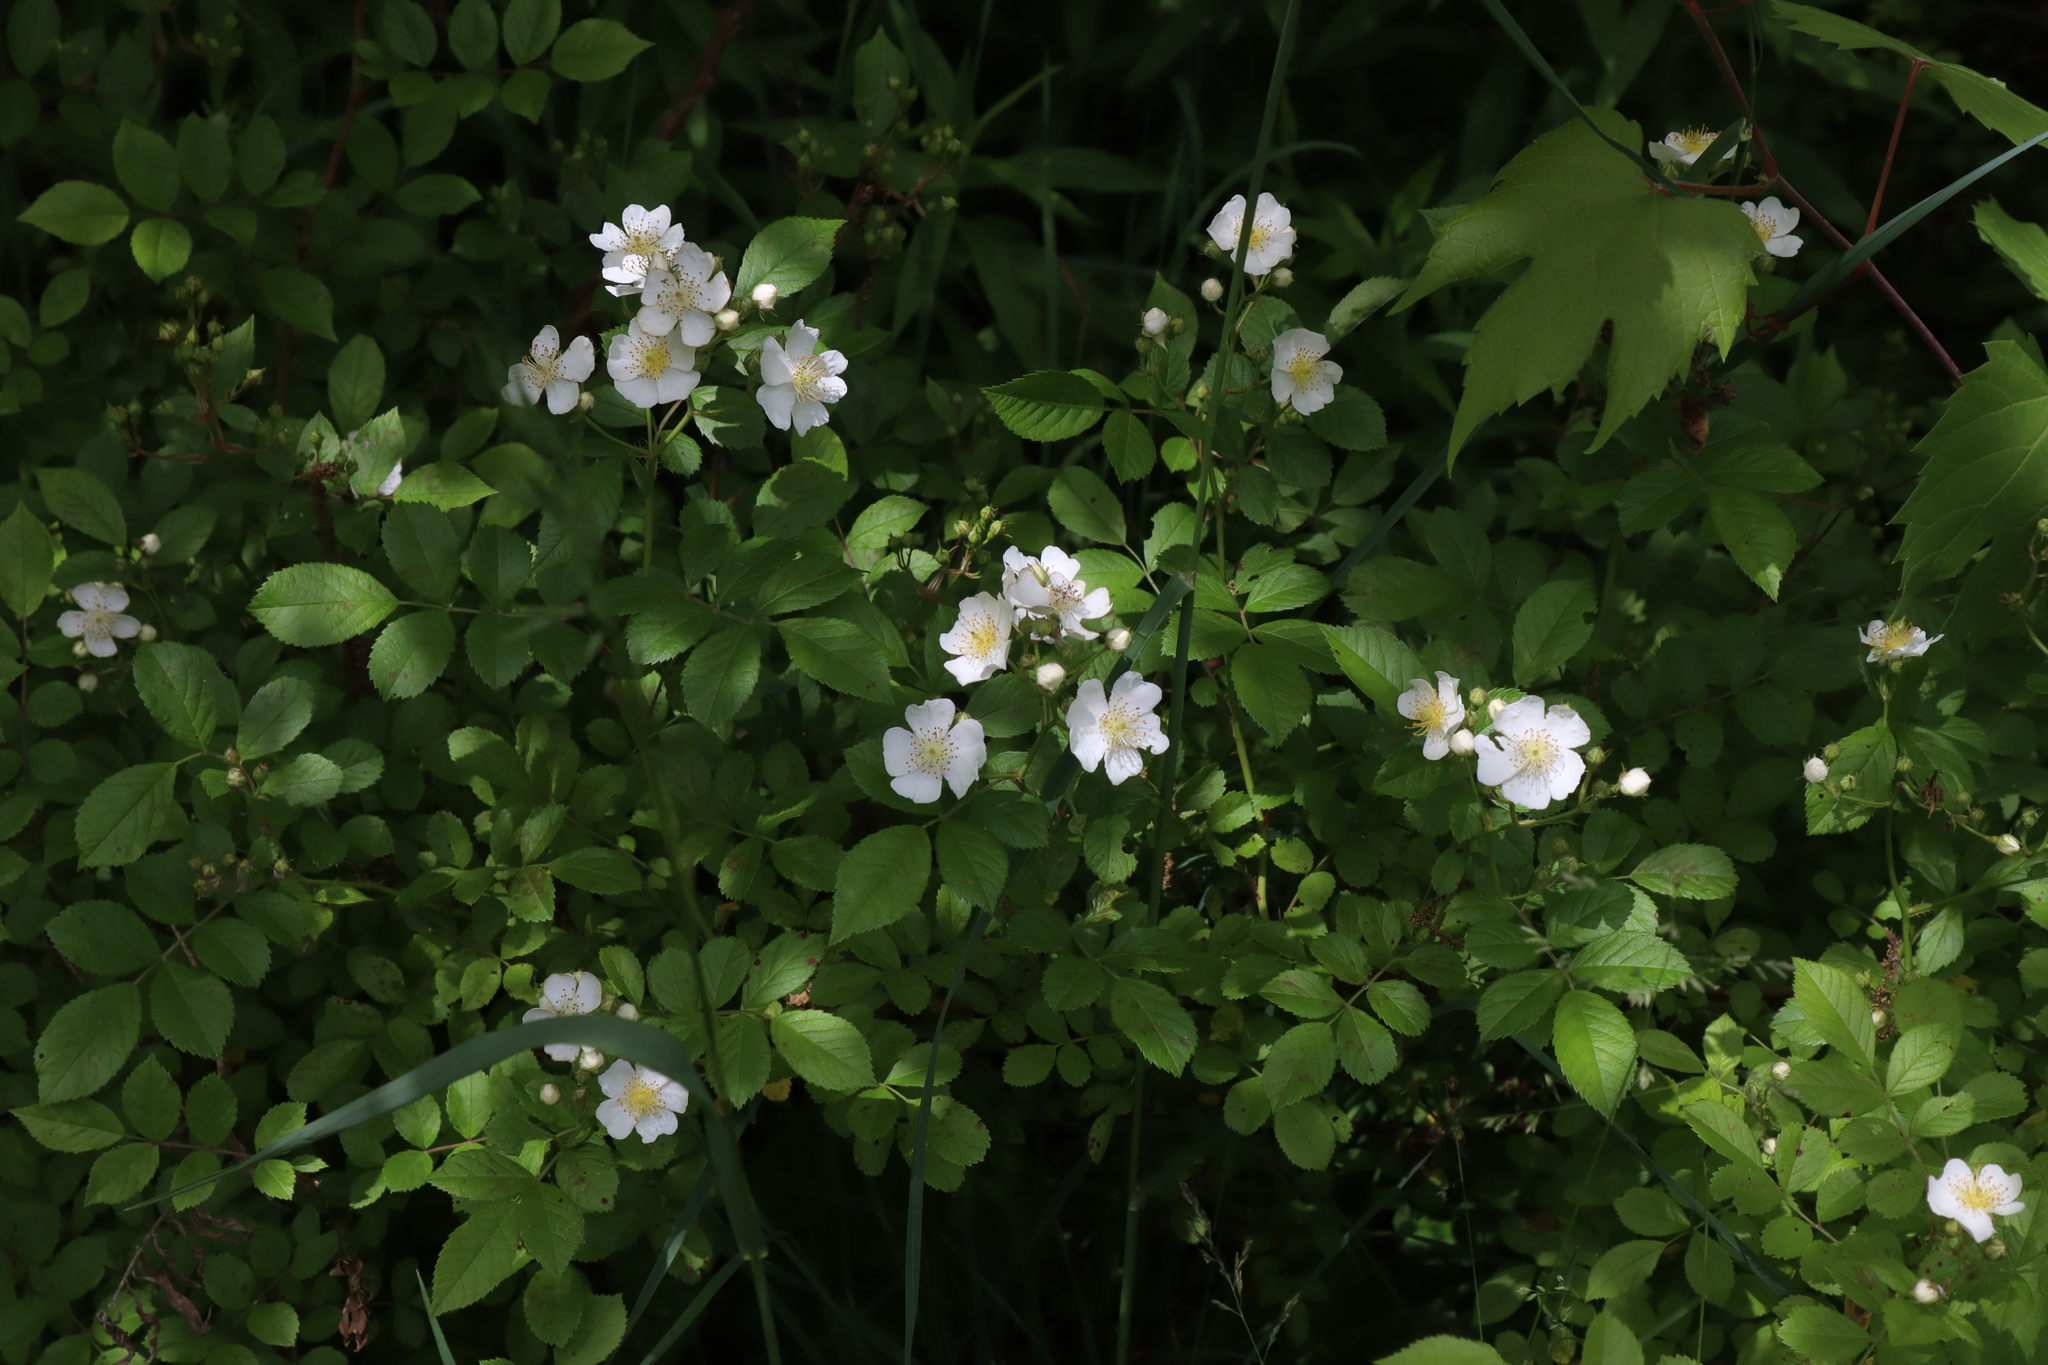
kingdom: Plantae
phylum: Tracheophyta
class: Magnoliopsida
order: Rosales
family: Rosaceae
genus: Rosa
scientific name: Rosa multiflora
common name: Multiflora rose
